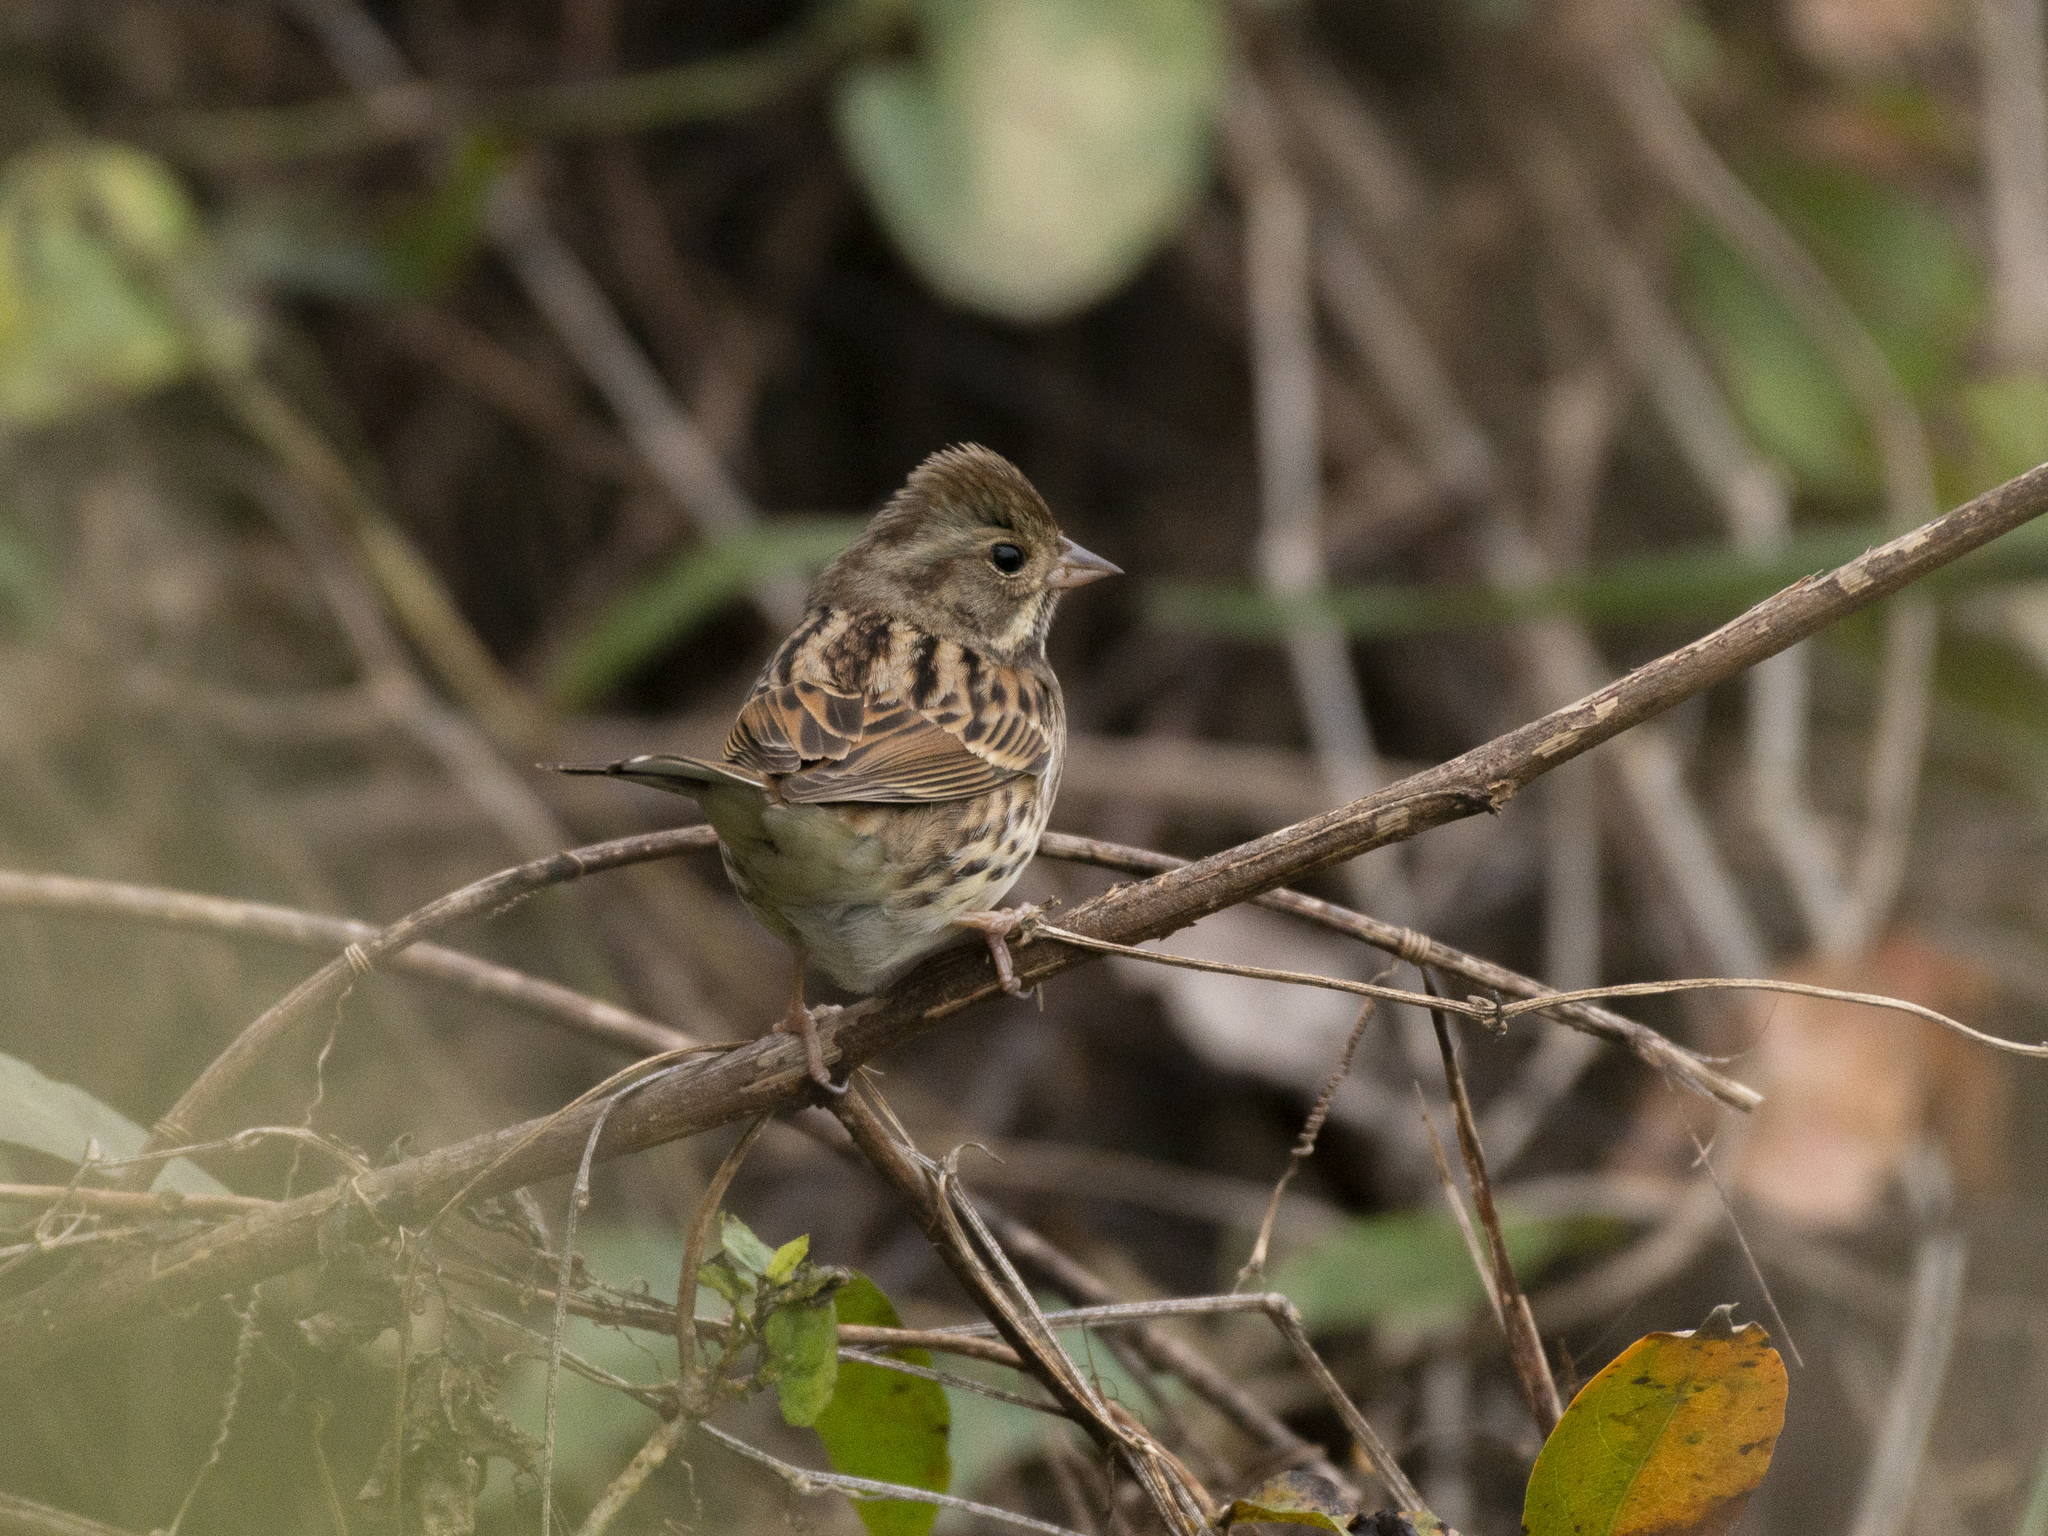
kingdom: Animalia
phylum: Chordata
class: Aves
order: Passeriformes
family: Emberizidae
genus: Emberiza
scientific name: Emberiza spodocephala
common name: Black-faced bunting
